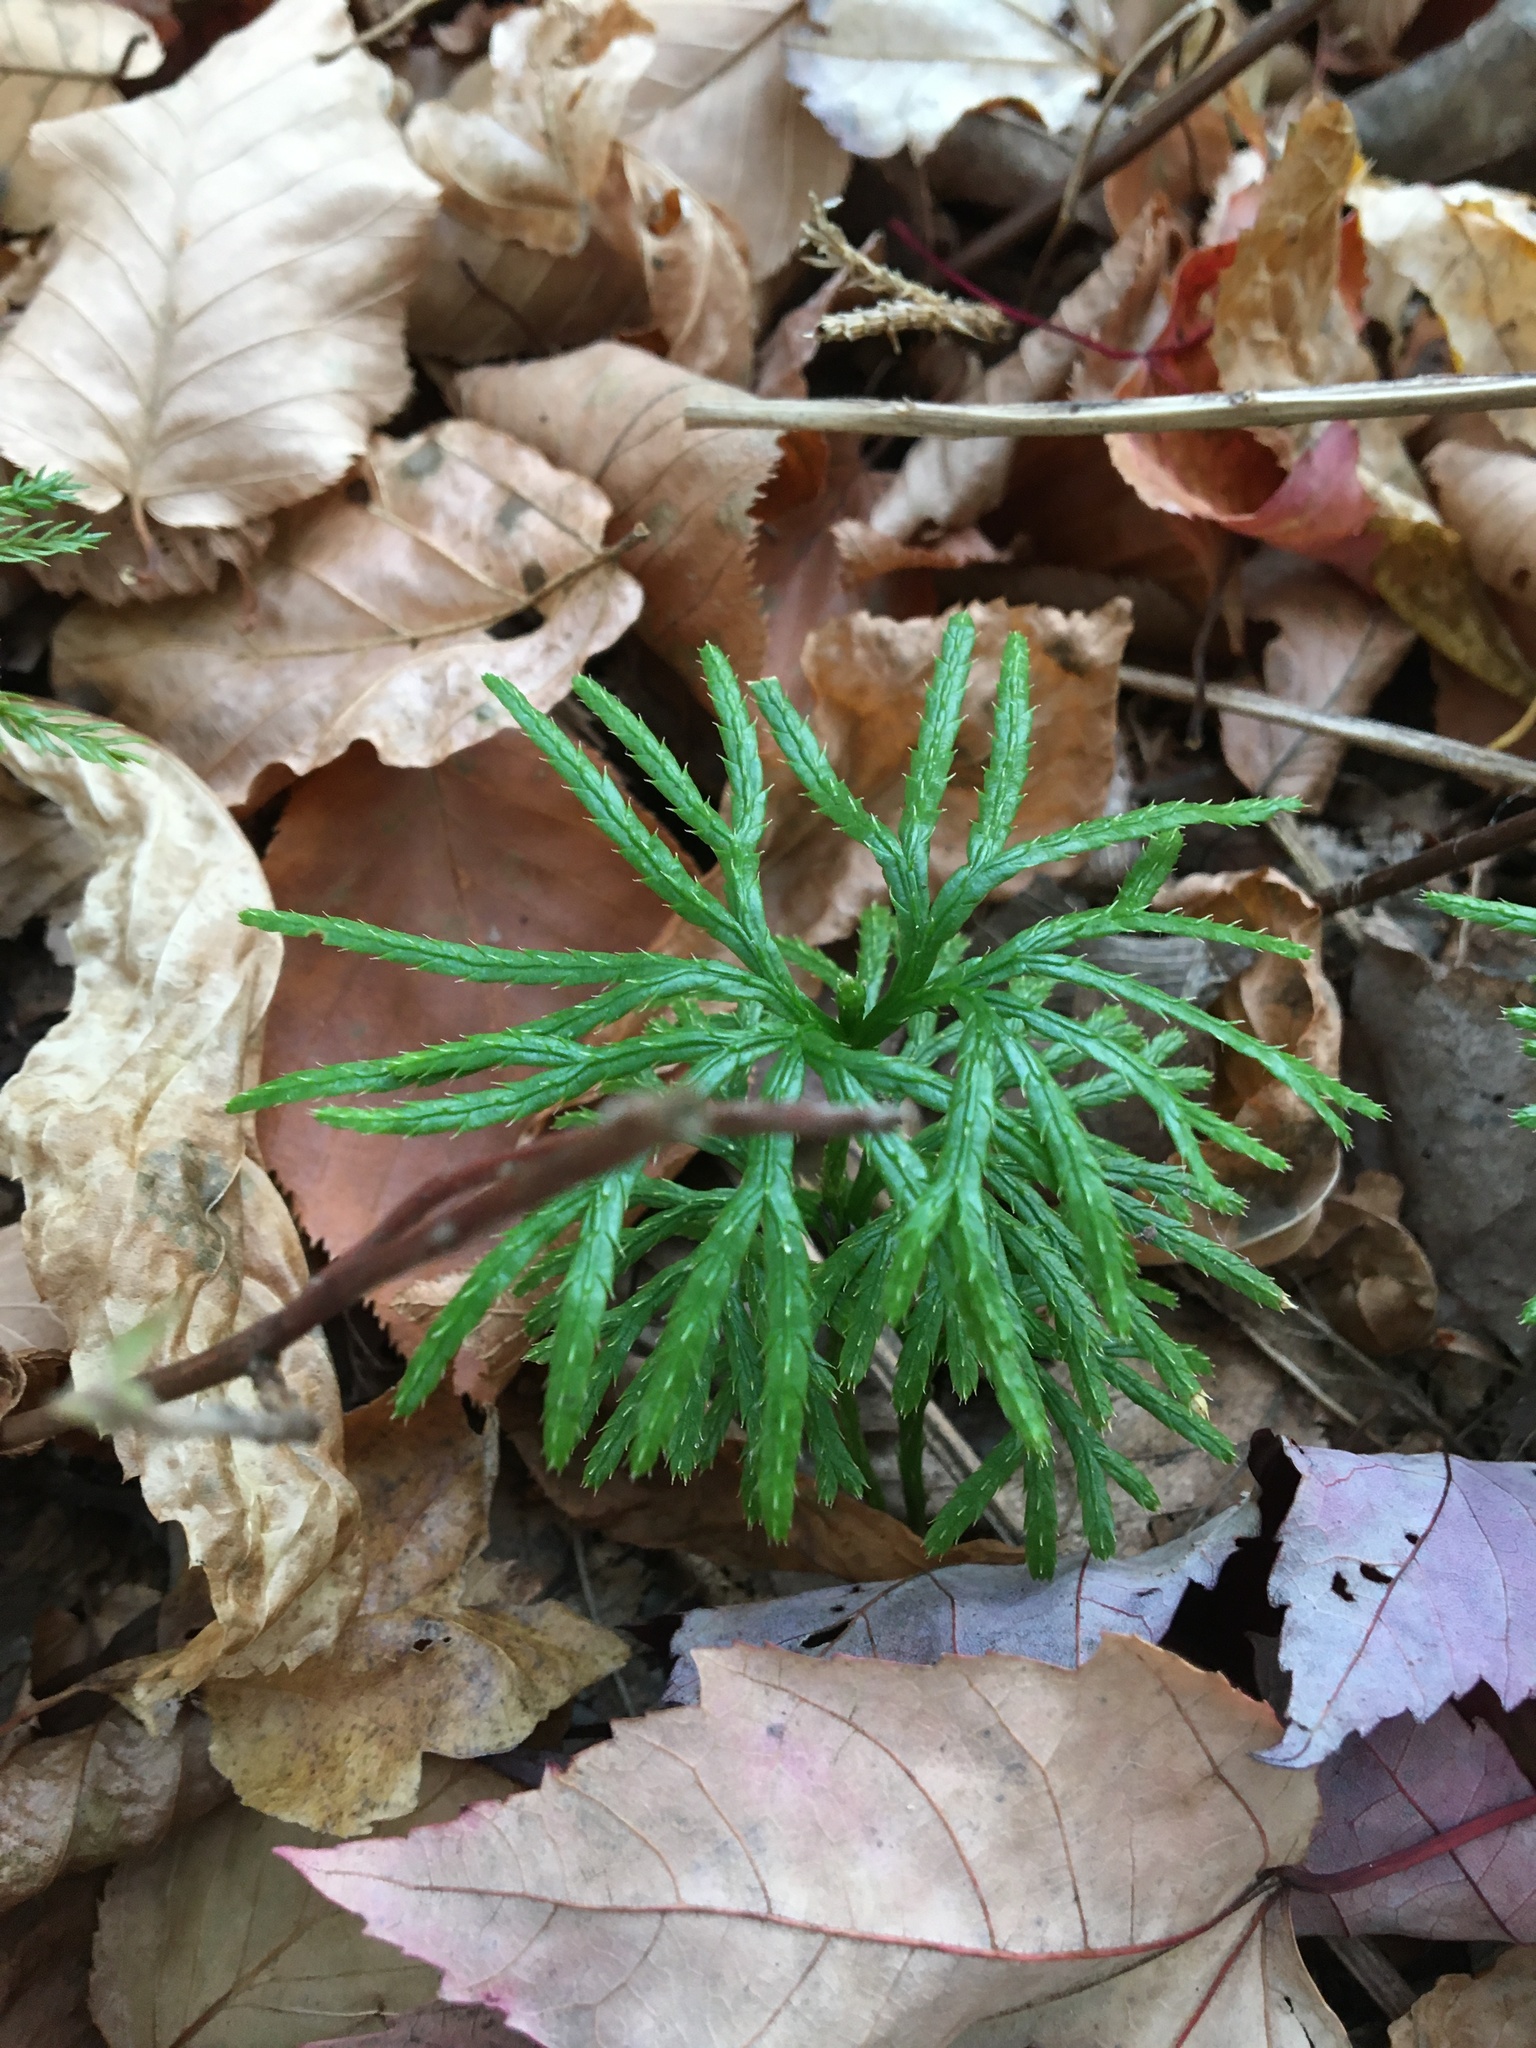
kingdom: Plantae
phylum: Tracheophyta
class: Lycopodiopsida
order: Lycopodiales
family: Lycopodiaceae
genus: Diphasiastrum
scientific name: Diphasiastrum digitatum
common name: Southern running-pine
